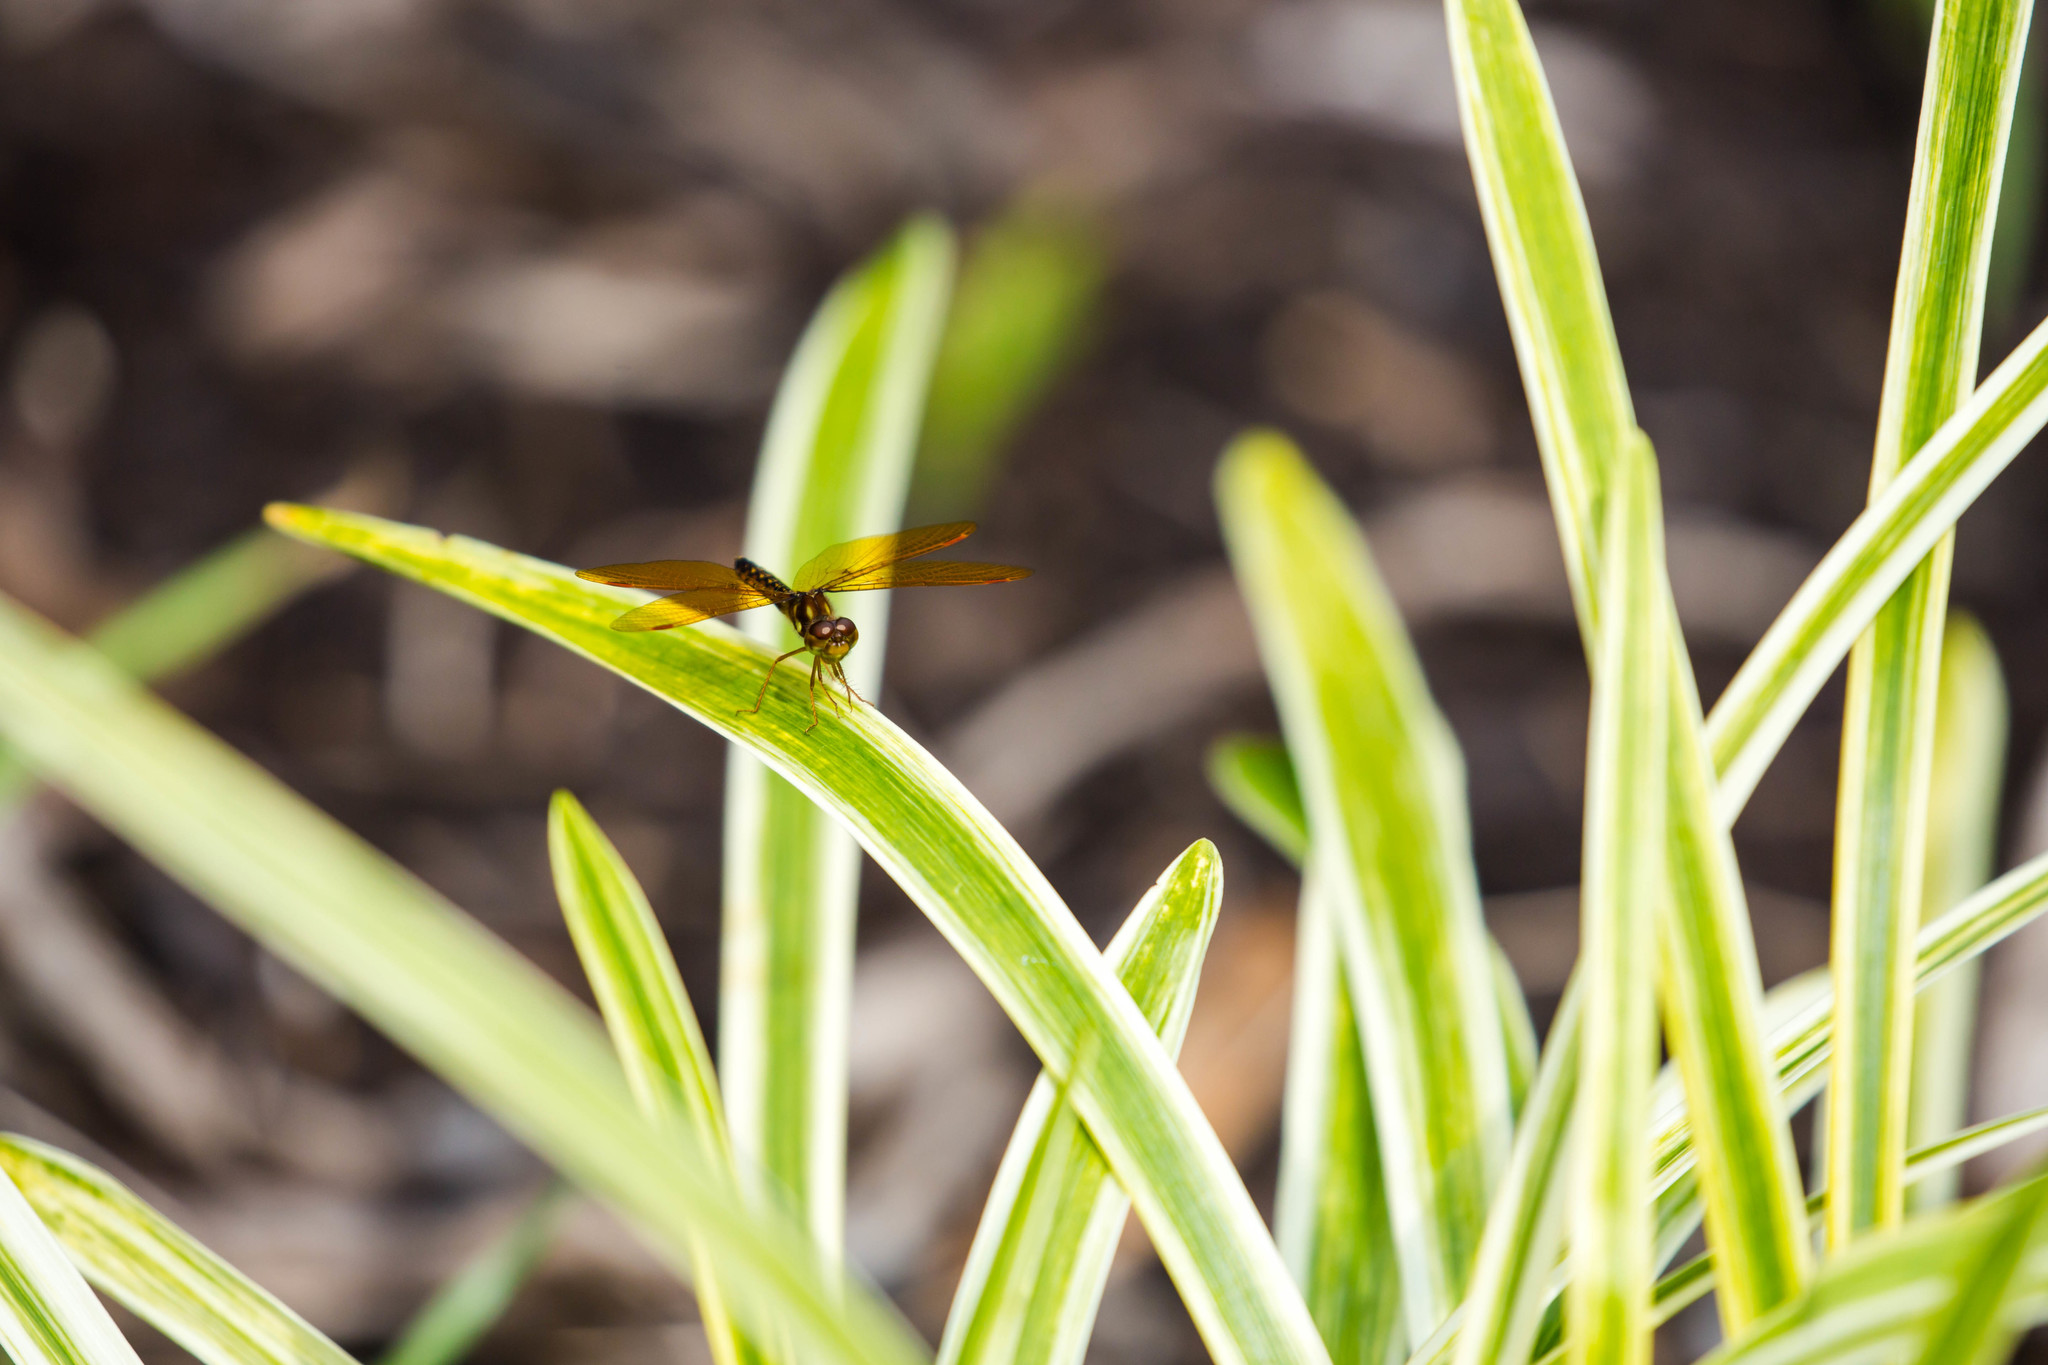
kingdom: Animalia
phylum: Arthropoda
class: Insecta
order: Odonata
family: Libellulidae
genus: Perithemis
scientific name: Perithemis tenera
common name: Eastern amberwing
